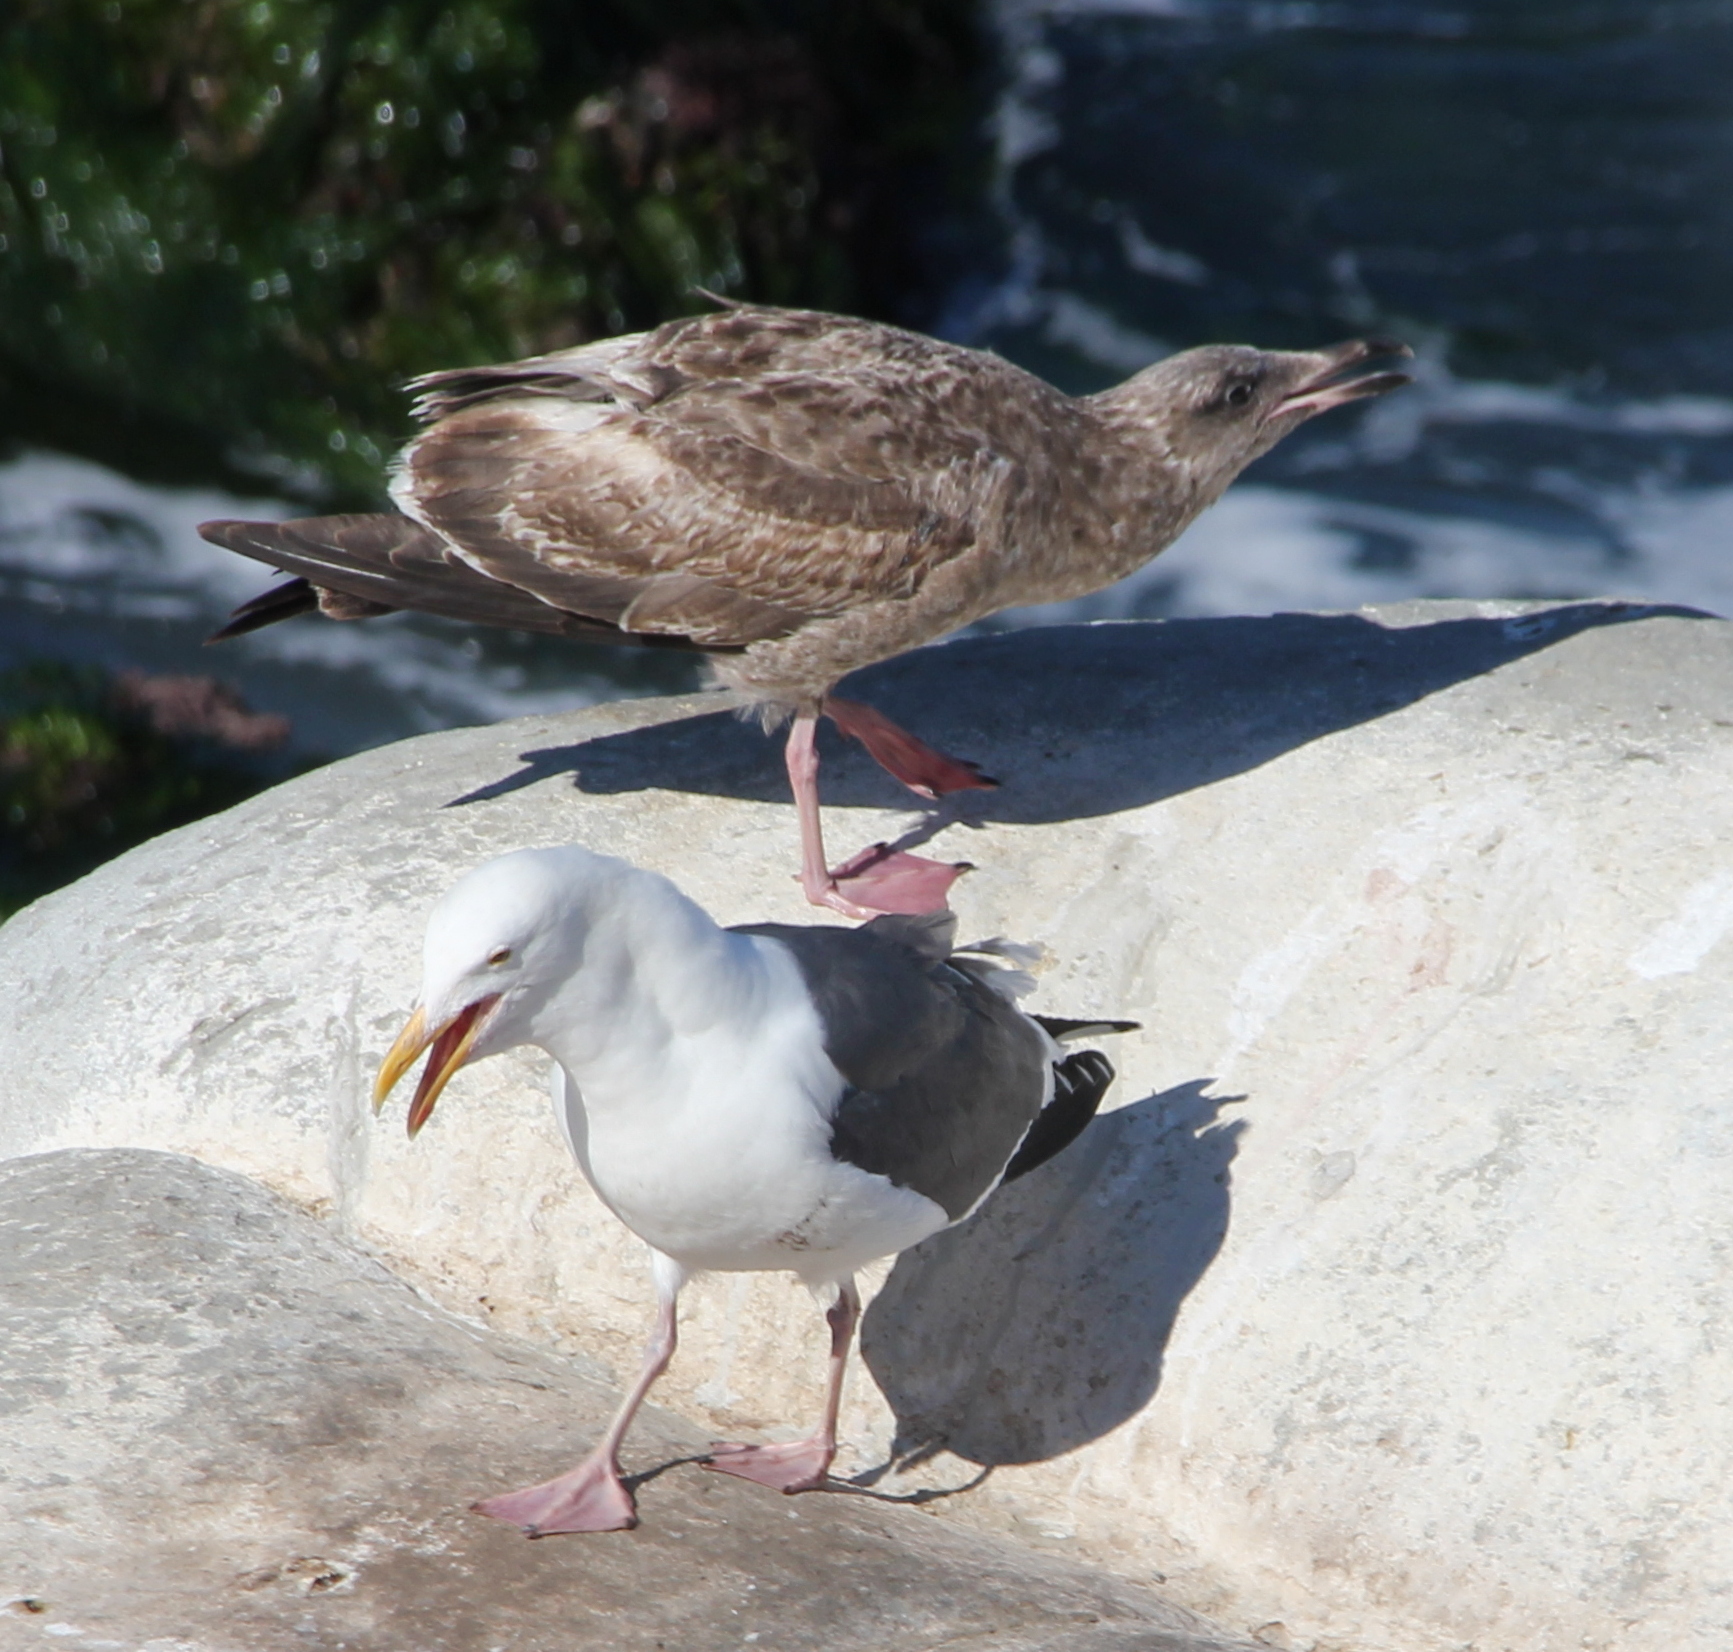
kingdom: Animalia
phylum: Chordata
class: Aves
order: Charadriiformes
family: Laridae
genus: Larus
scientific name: Larus occidentalis
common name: Western gull
